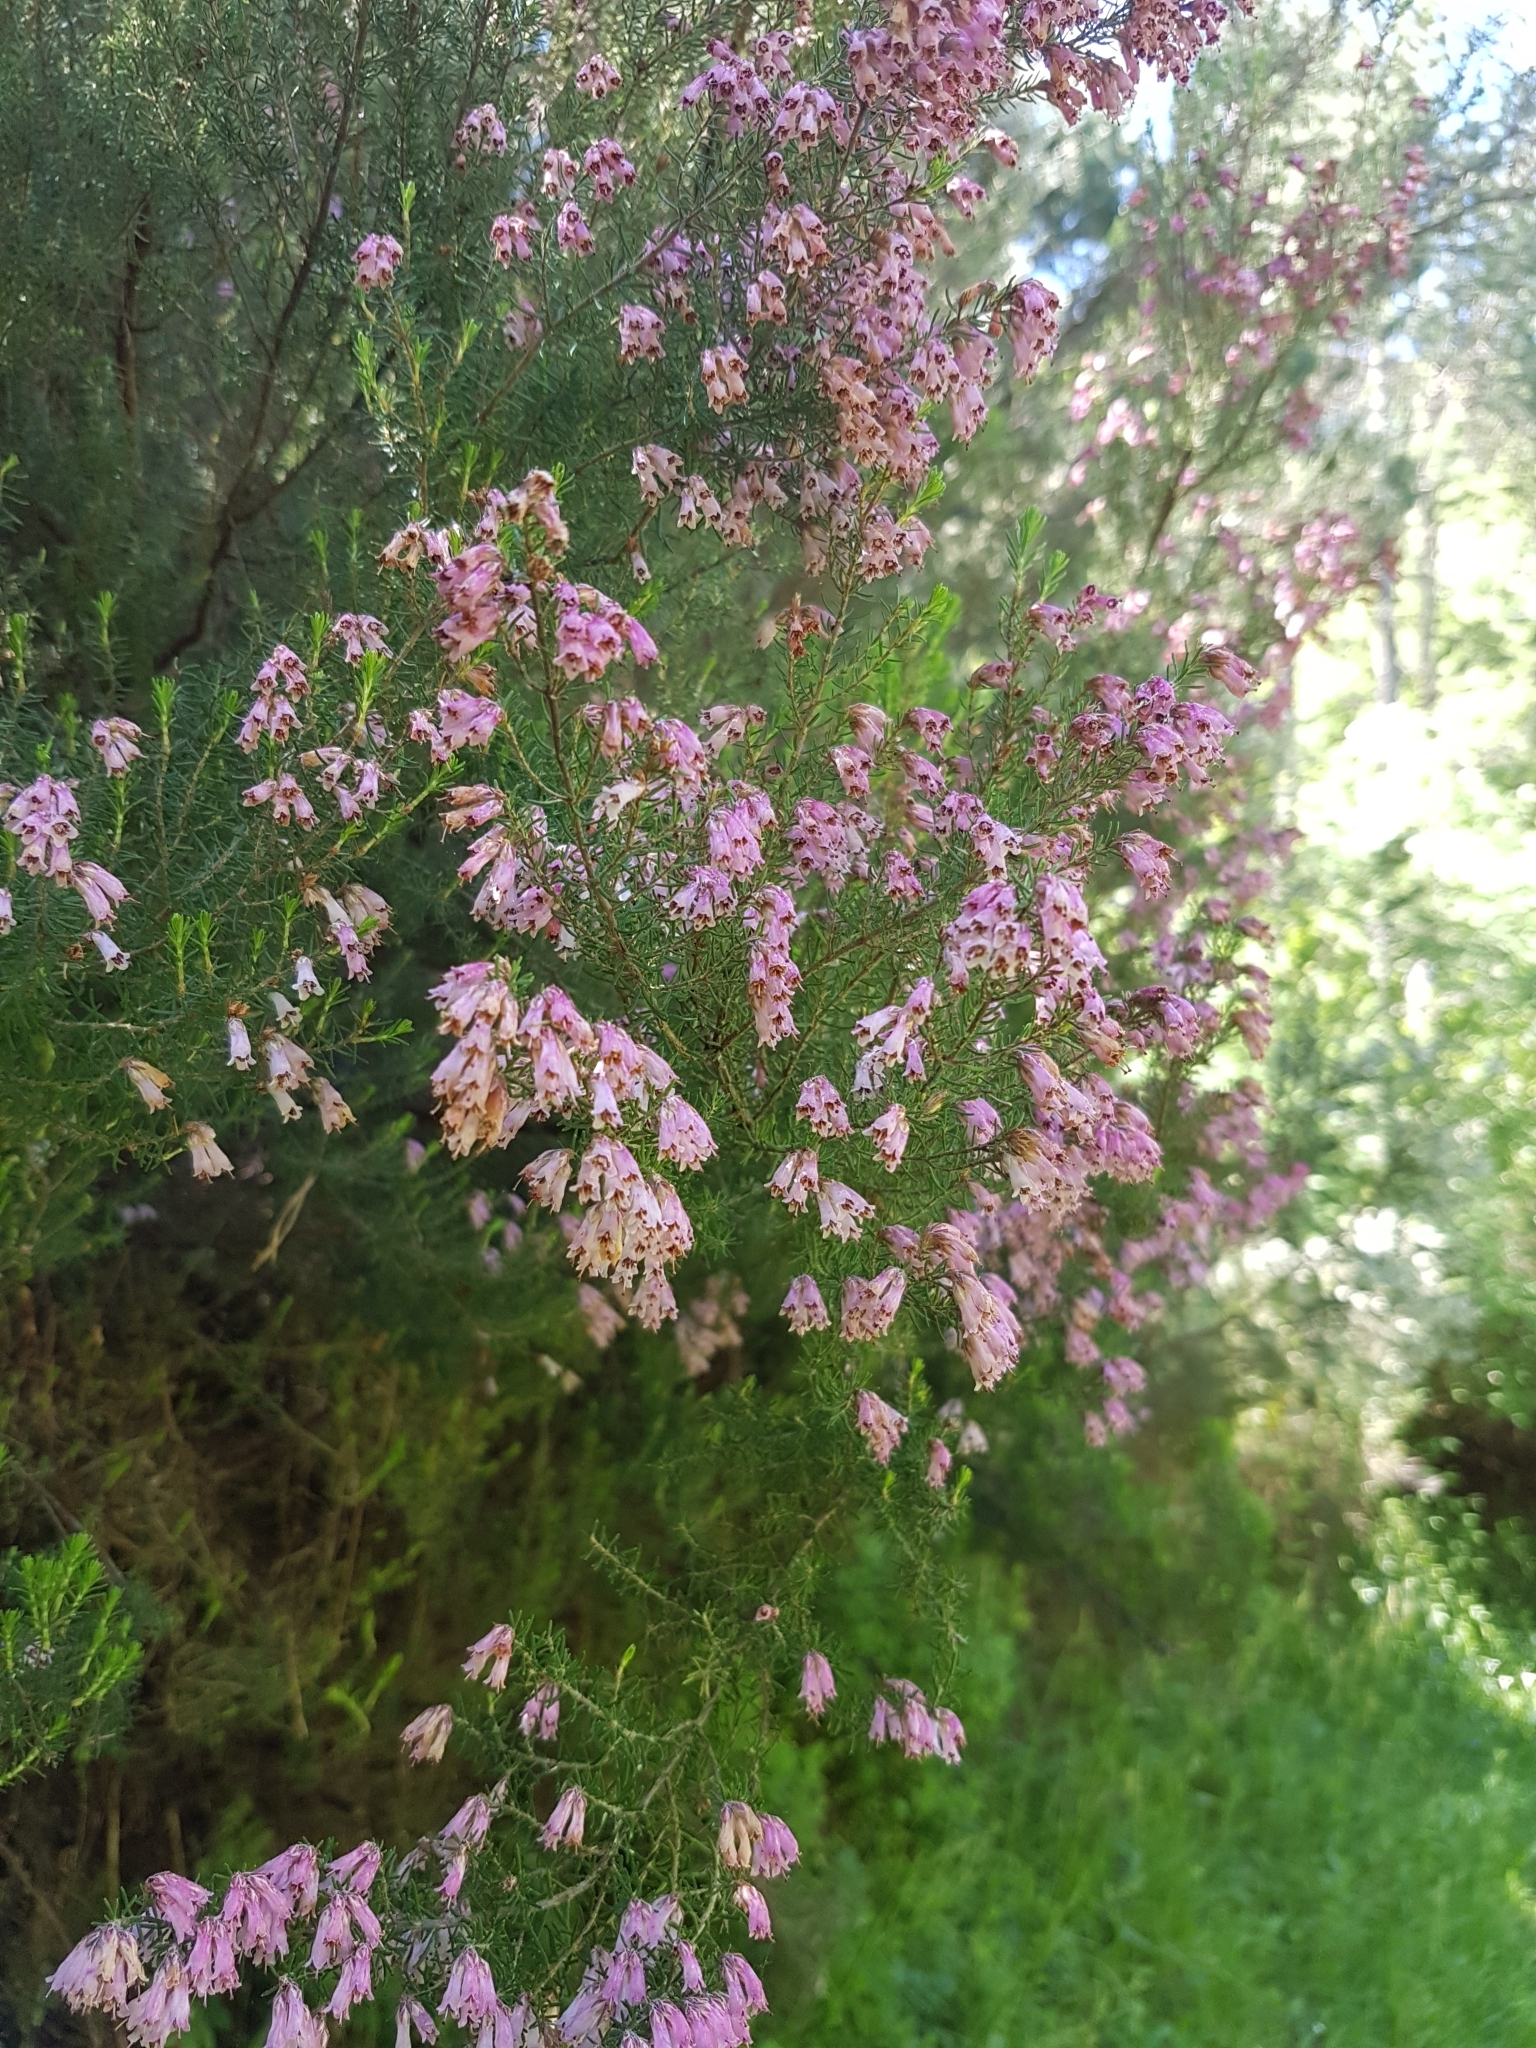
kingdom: Plantae
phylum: Tracheophyta
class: Magnoliopsida
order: Ericales
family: Ericaceae
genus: Erica
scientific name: Erica australis
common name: Spanish heath
